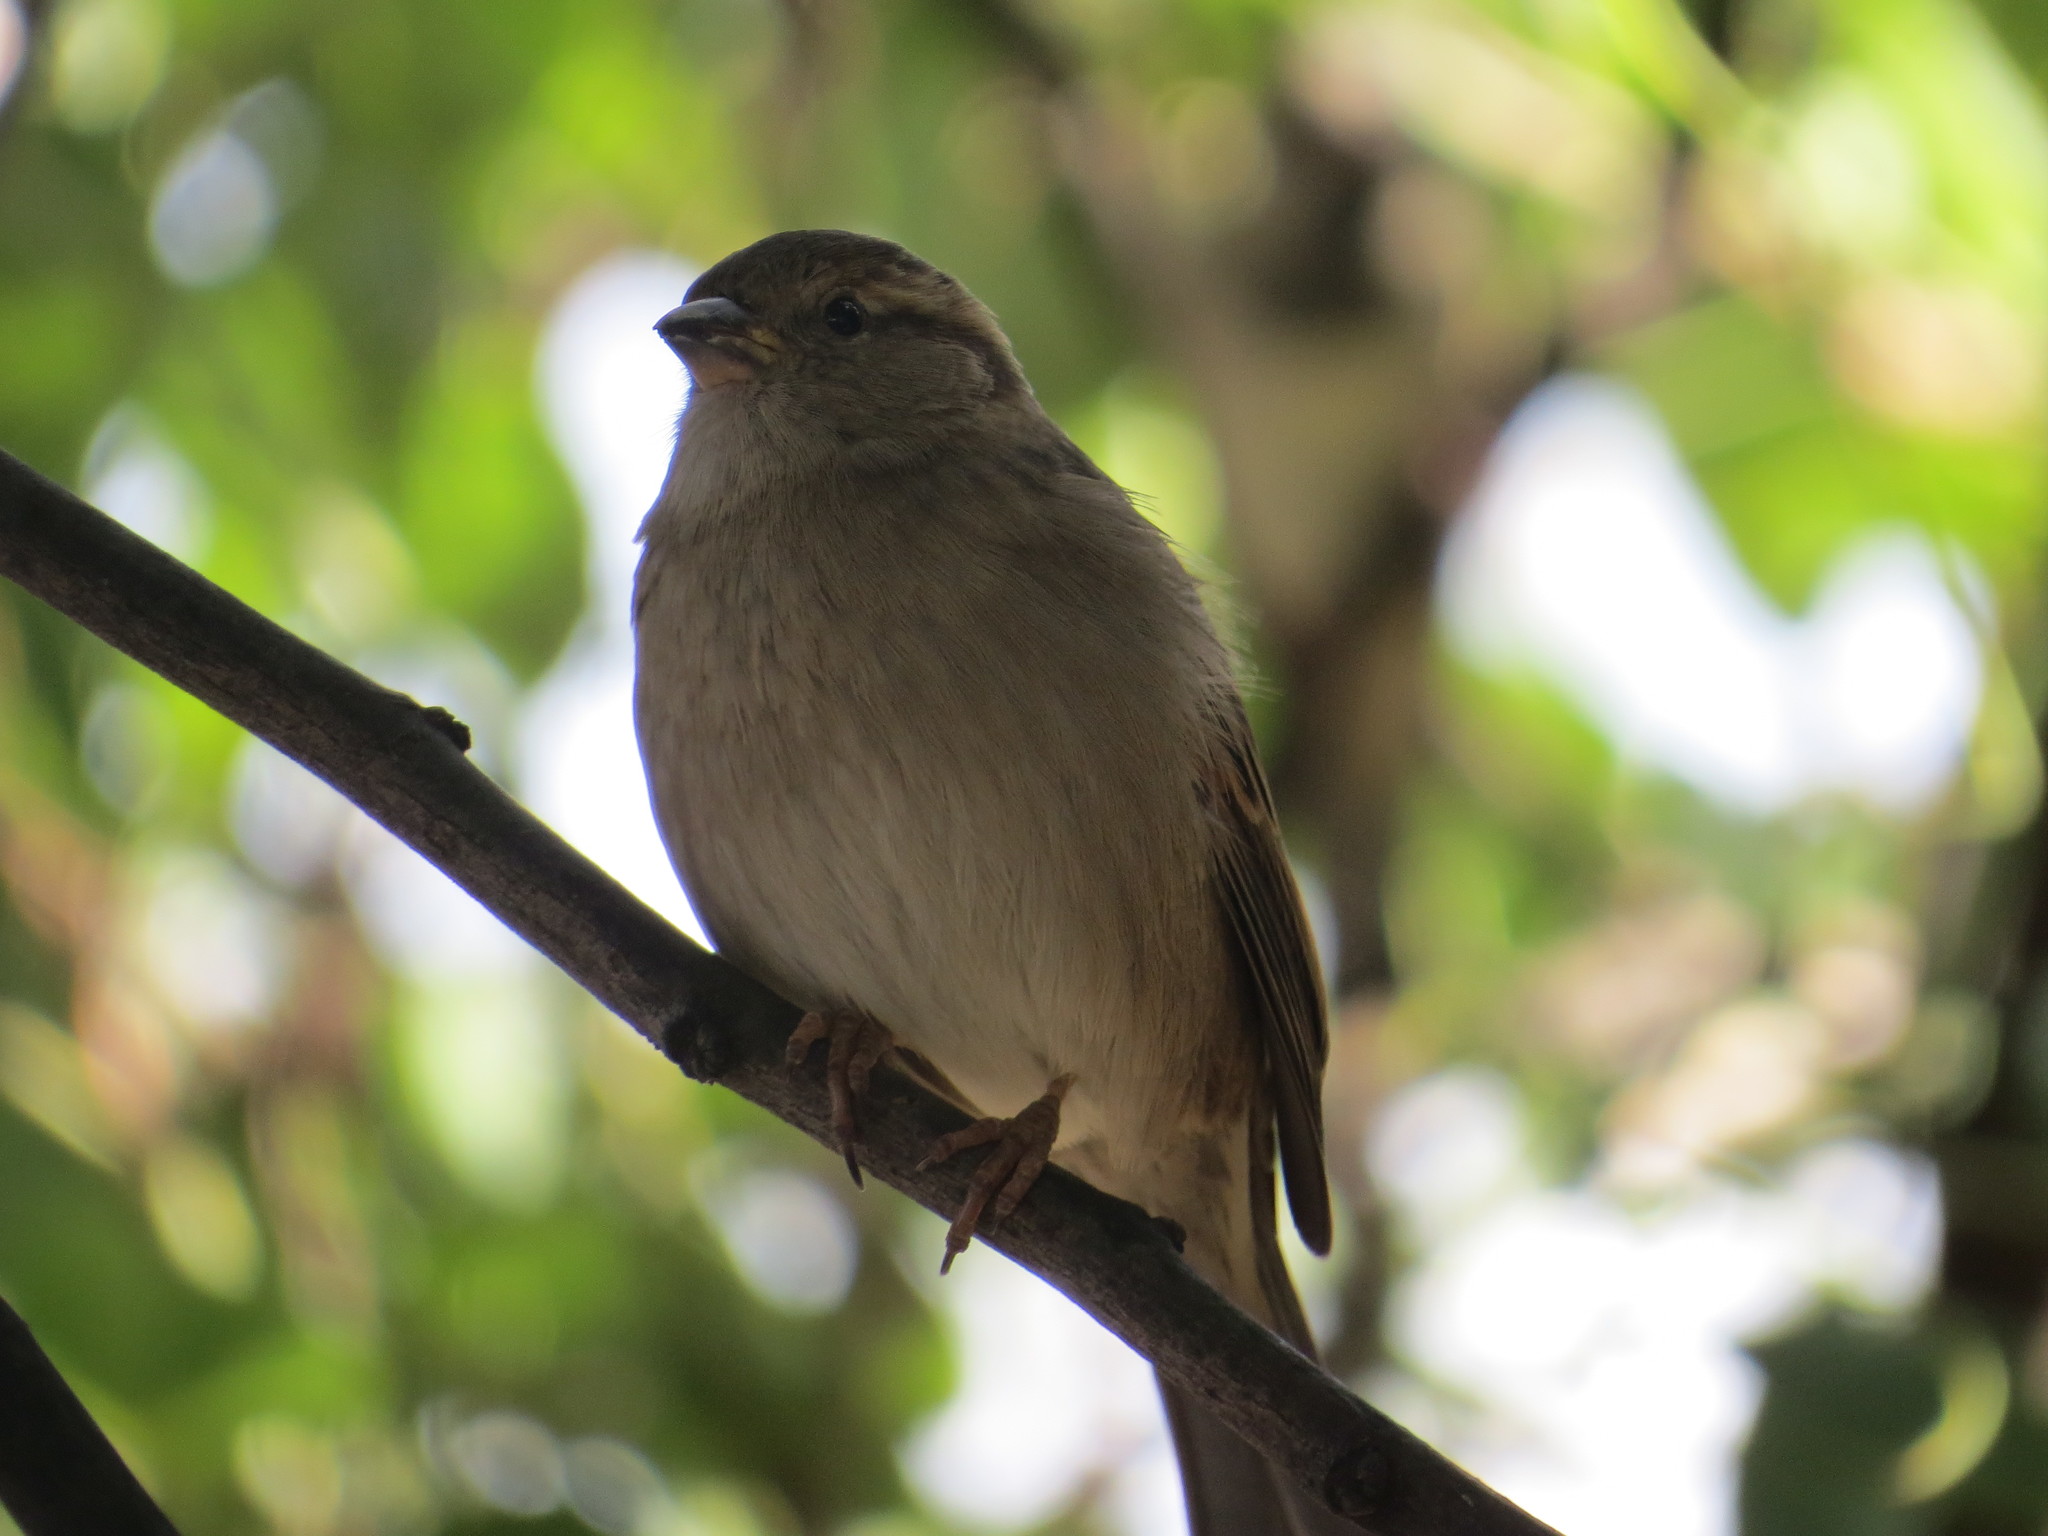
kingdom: Animalia
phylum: Chordata
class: Aves
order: Passeriformes
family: Passeridae
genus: Passer
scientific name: Passer domesticus
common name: House sparrow
